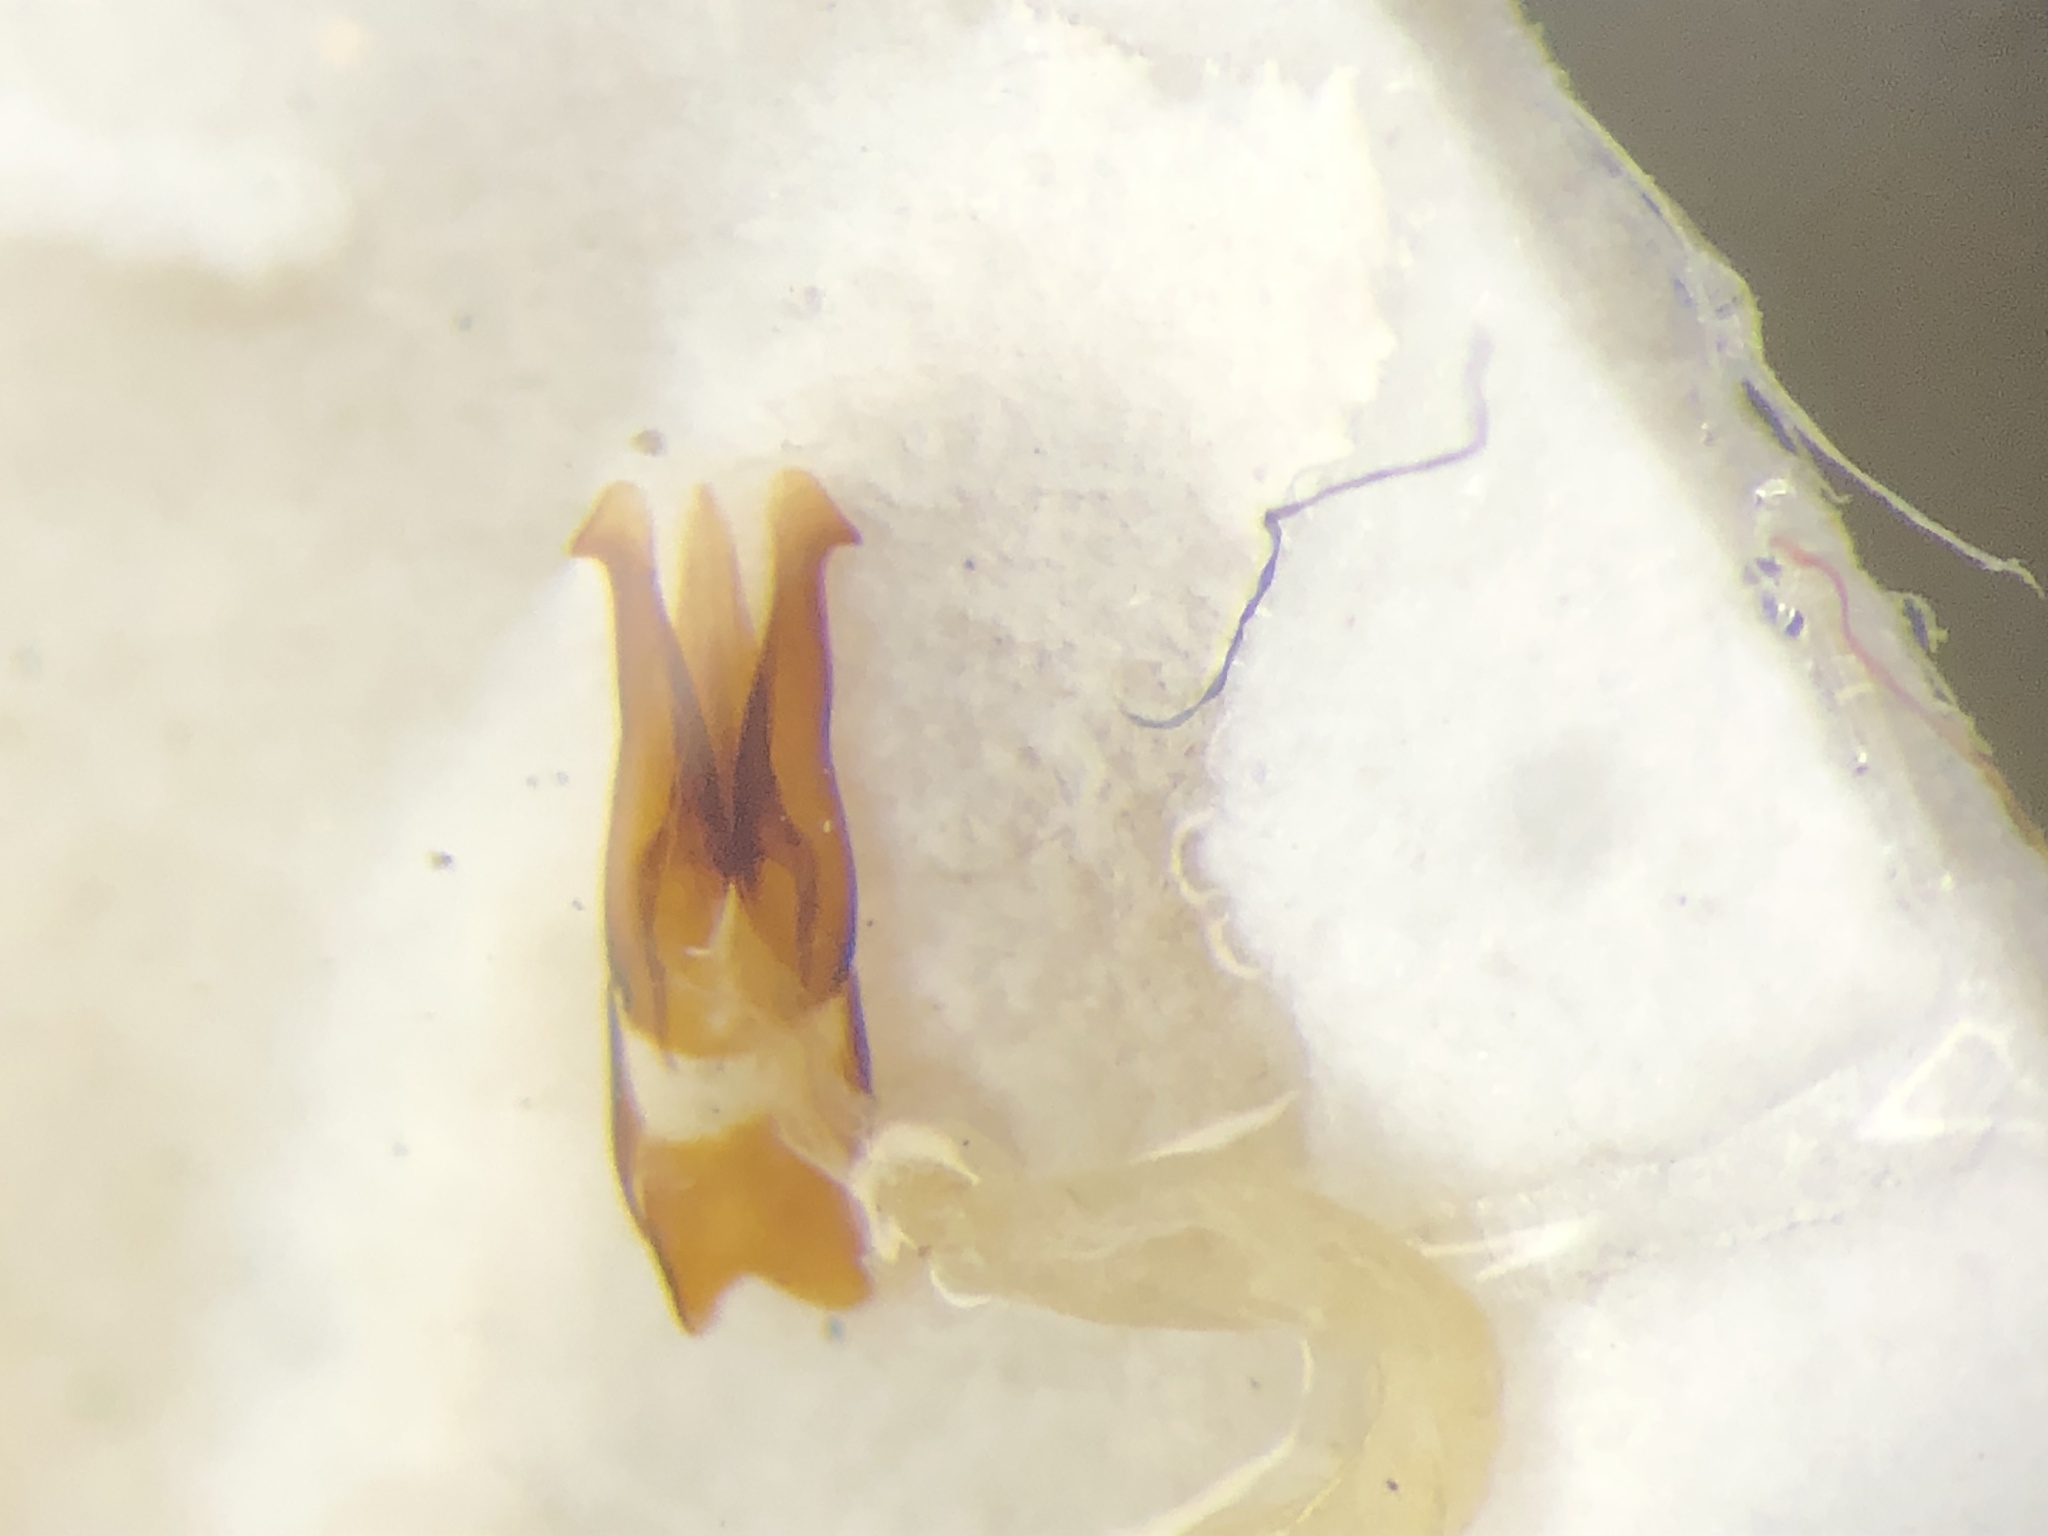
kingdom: Animalia
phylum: Arthropoda
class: Insecta
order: Coleoptera
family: Elateridae
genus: Agriotes
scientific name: Agriotes fucosus
